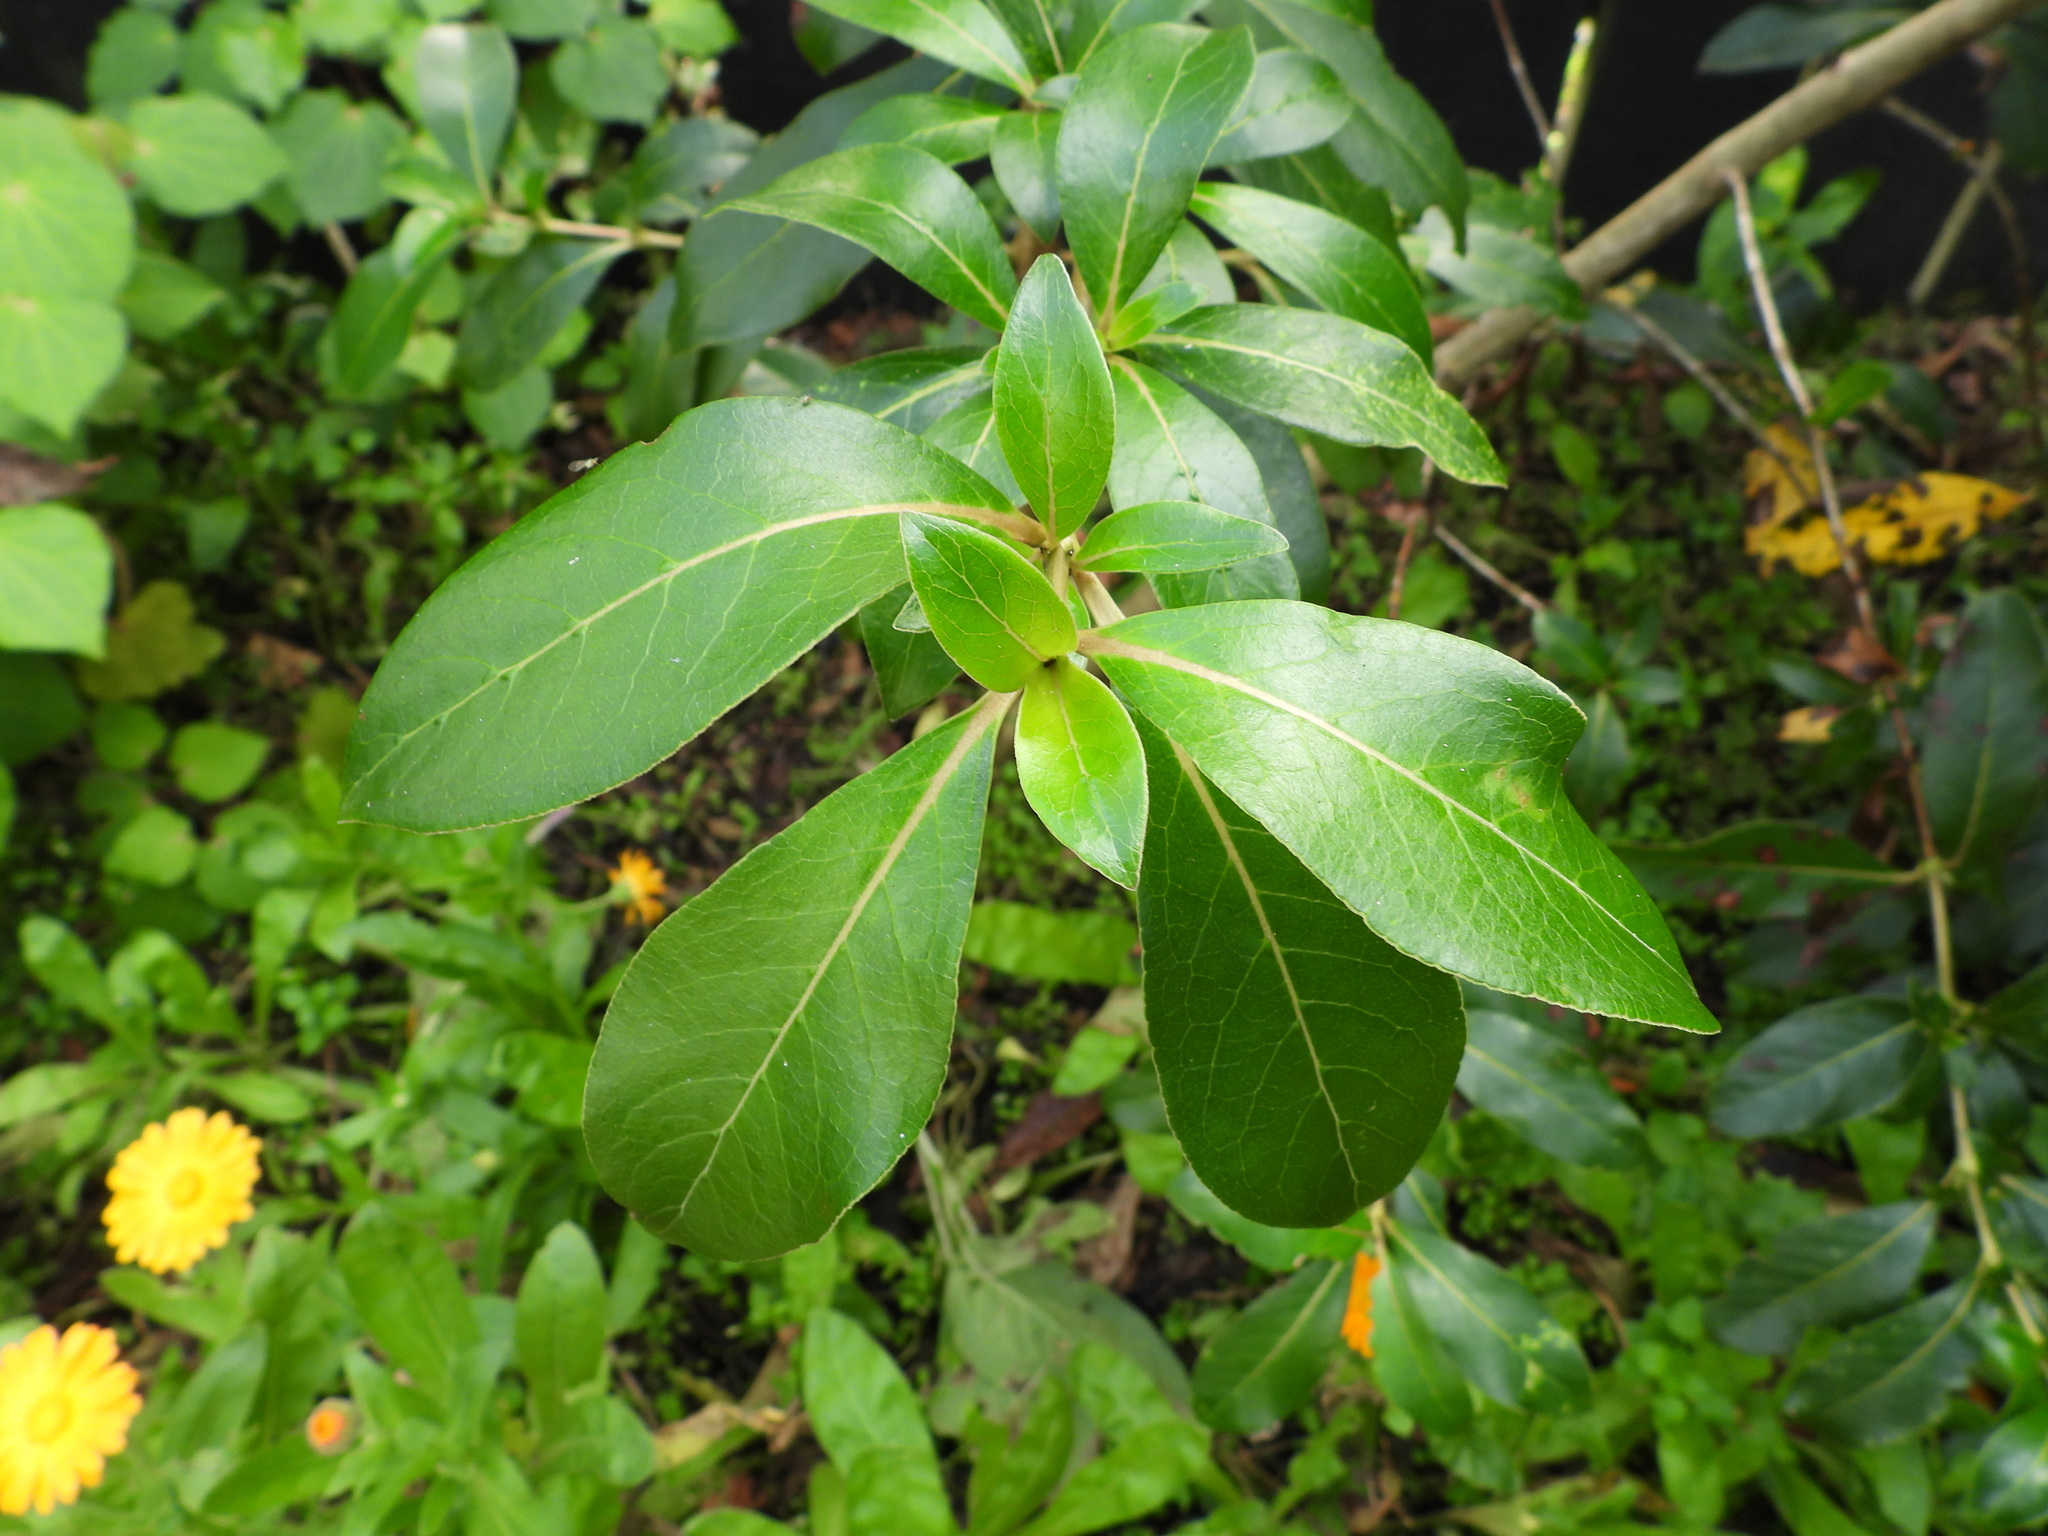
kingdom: Plantae
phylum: Tracheophyta
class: Magnoliopsida
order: Gentianales
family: Rubiaceae
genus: Coprosma
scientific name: Coprosma robusta
